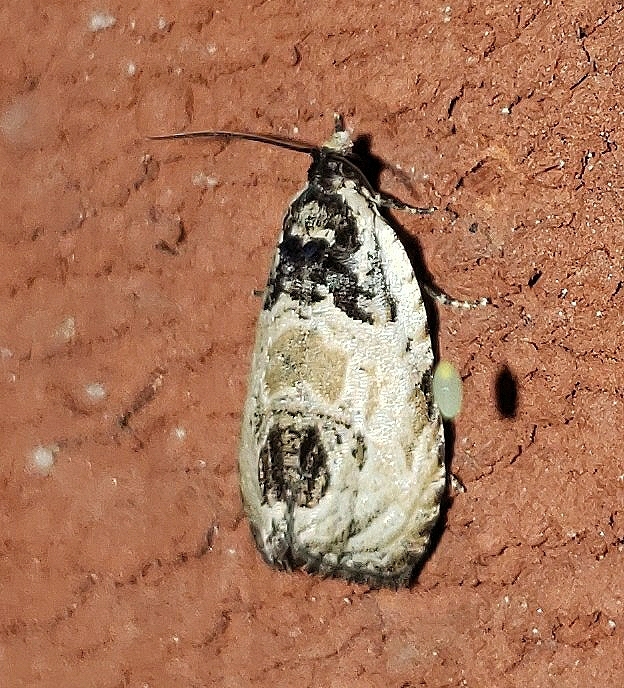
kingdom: Animalia
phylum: Arthropoda
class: Insecta
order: Lepidoptera
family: Tortricidae
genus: Olethreutes
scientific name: Olethreutes griseoalbana
